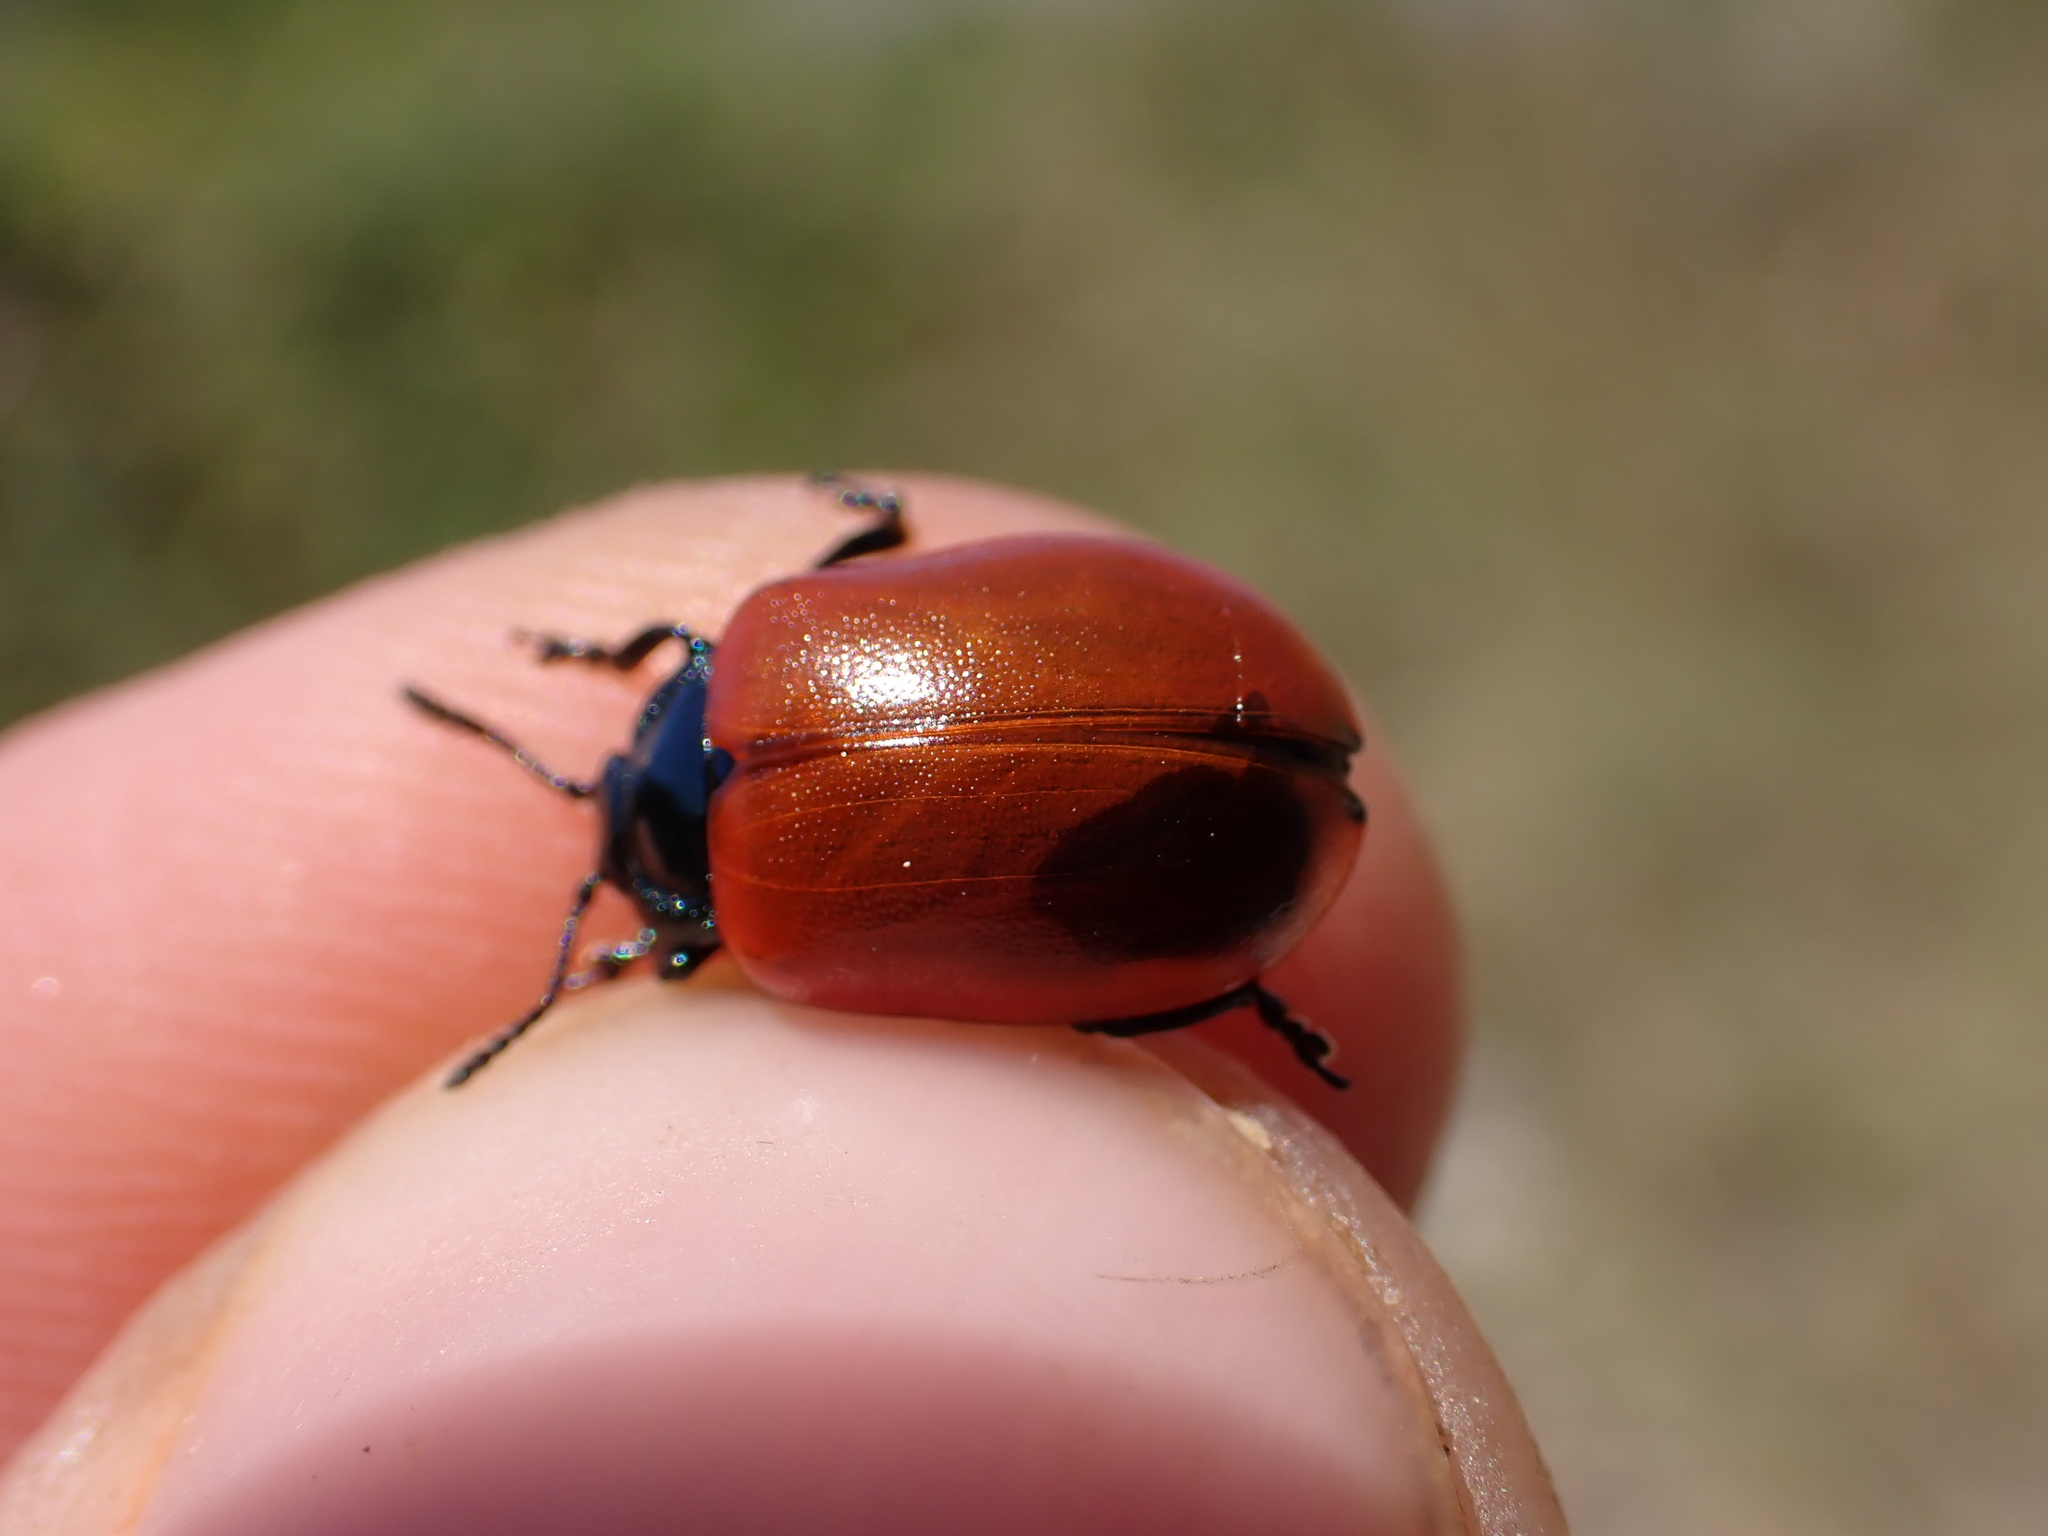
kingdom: Animalia
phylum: Arthropoda
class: Insecta
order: Coleoptera
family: Chrysomelidae
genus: Chrysomela
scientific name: Chrysomela populi
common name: Red poplar leaf beetle
